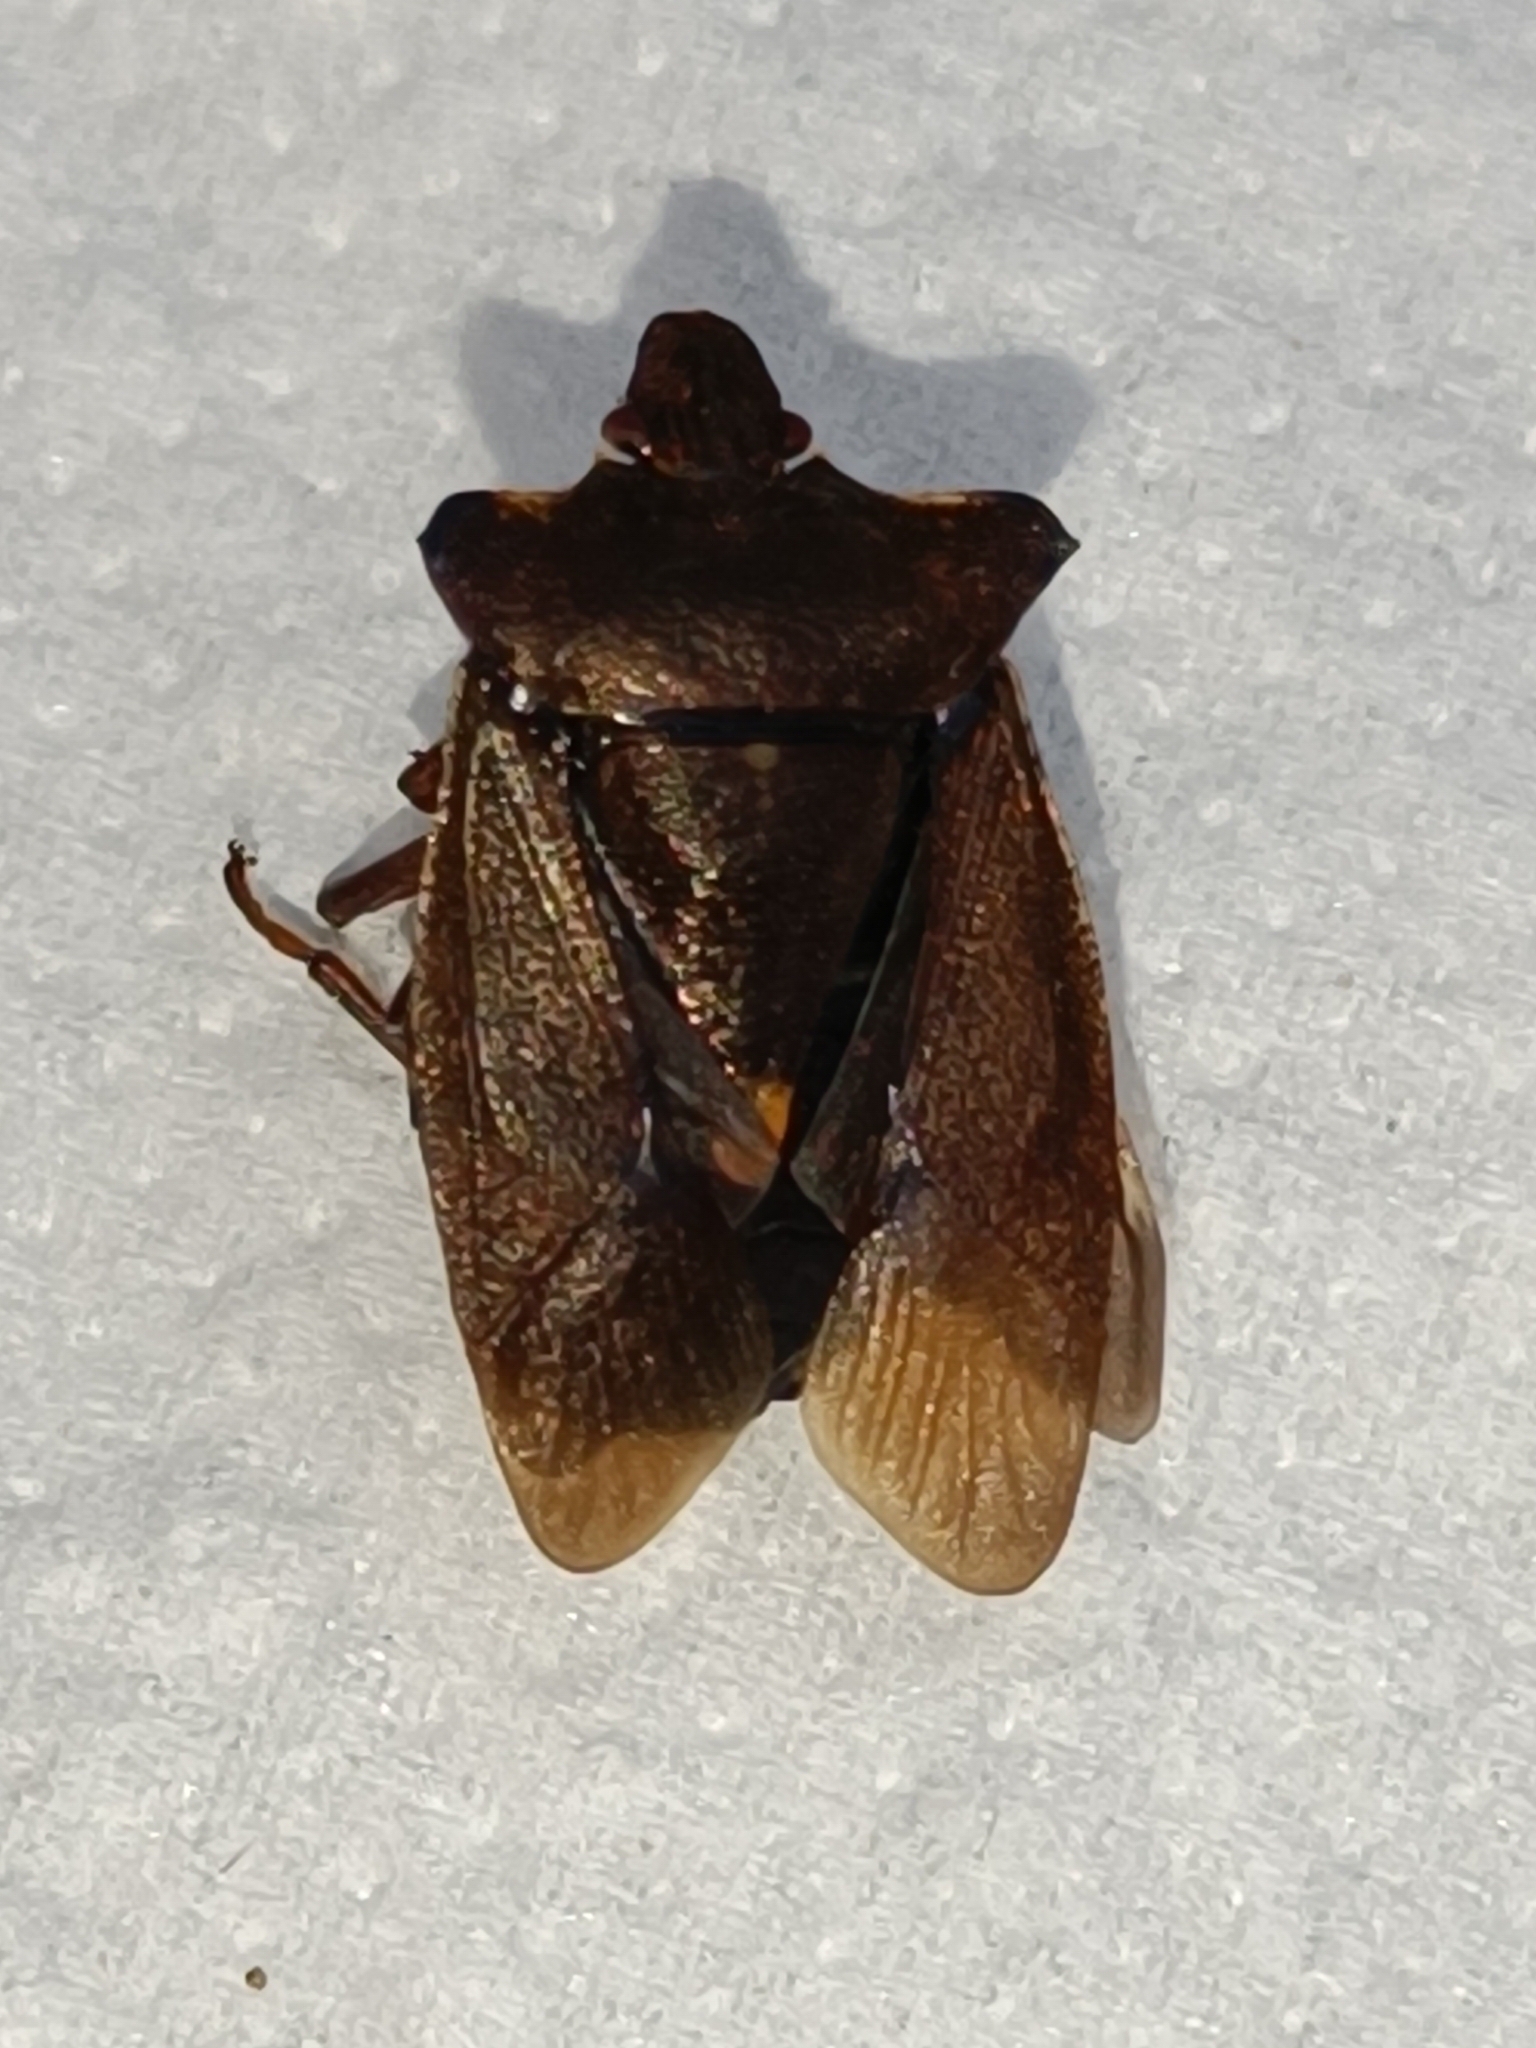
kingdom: Animalia
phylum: Arthropoda
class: Insecta
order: Hemiptera
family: Pentatomidae
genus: Pentatoma
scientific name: Pentatoma rufipes
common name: Forest bug
